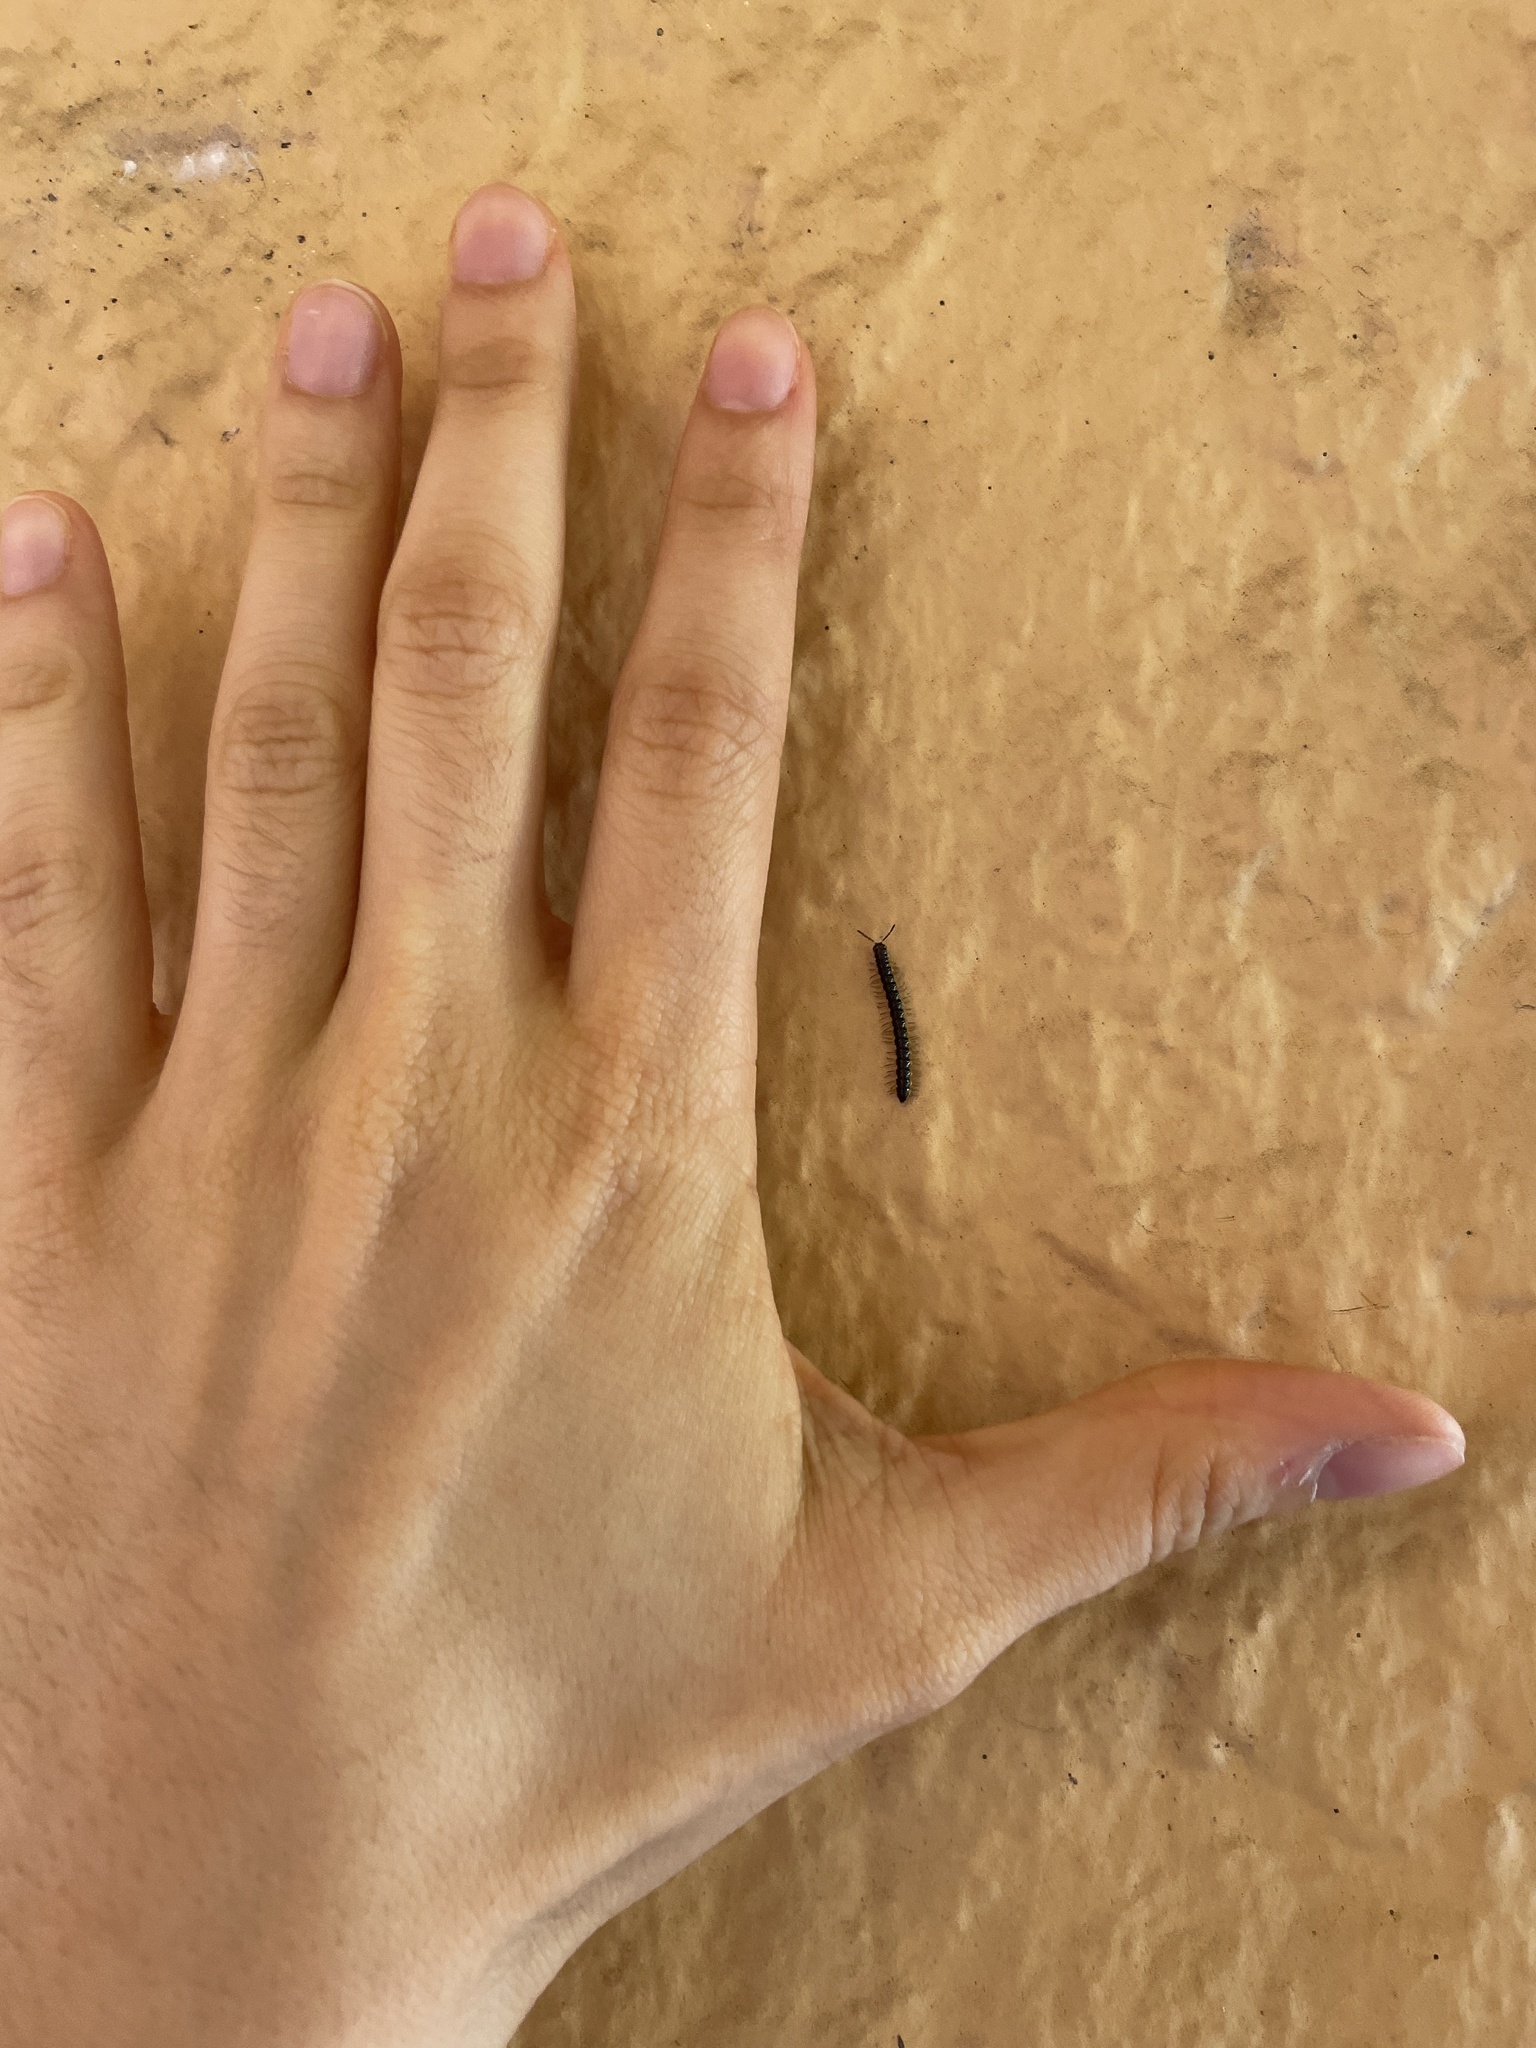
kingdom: Animalia
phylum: Arthropoda
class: Diplopoda
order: Polydesmida
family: Paradoxosomatidae
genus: Orthomorpha
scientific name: Orthomorpha coarctata
